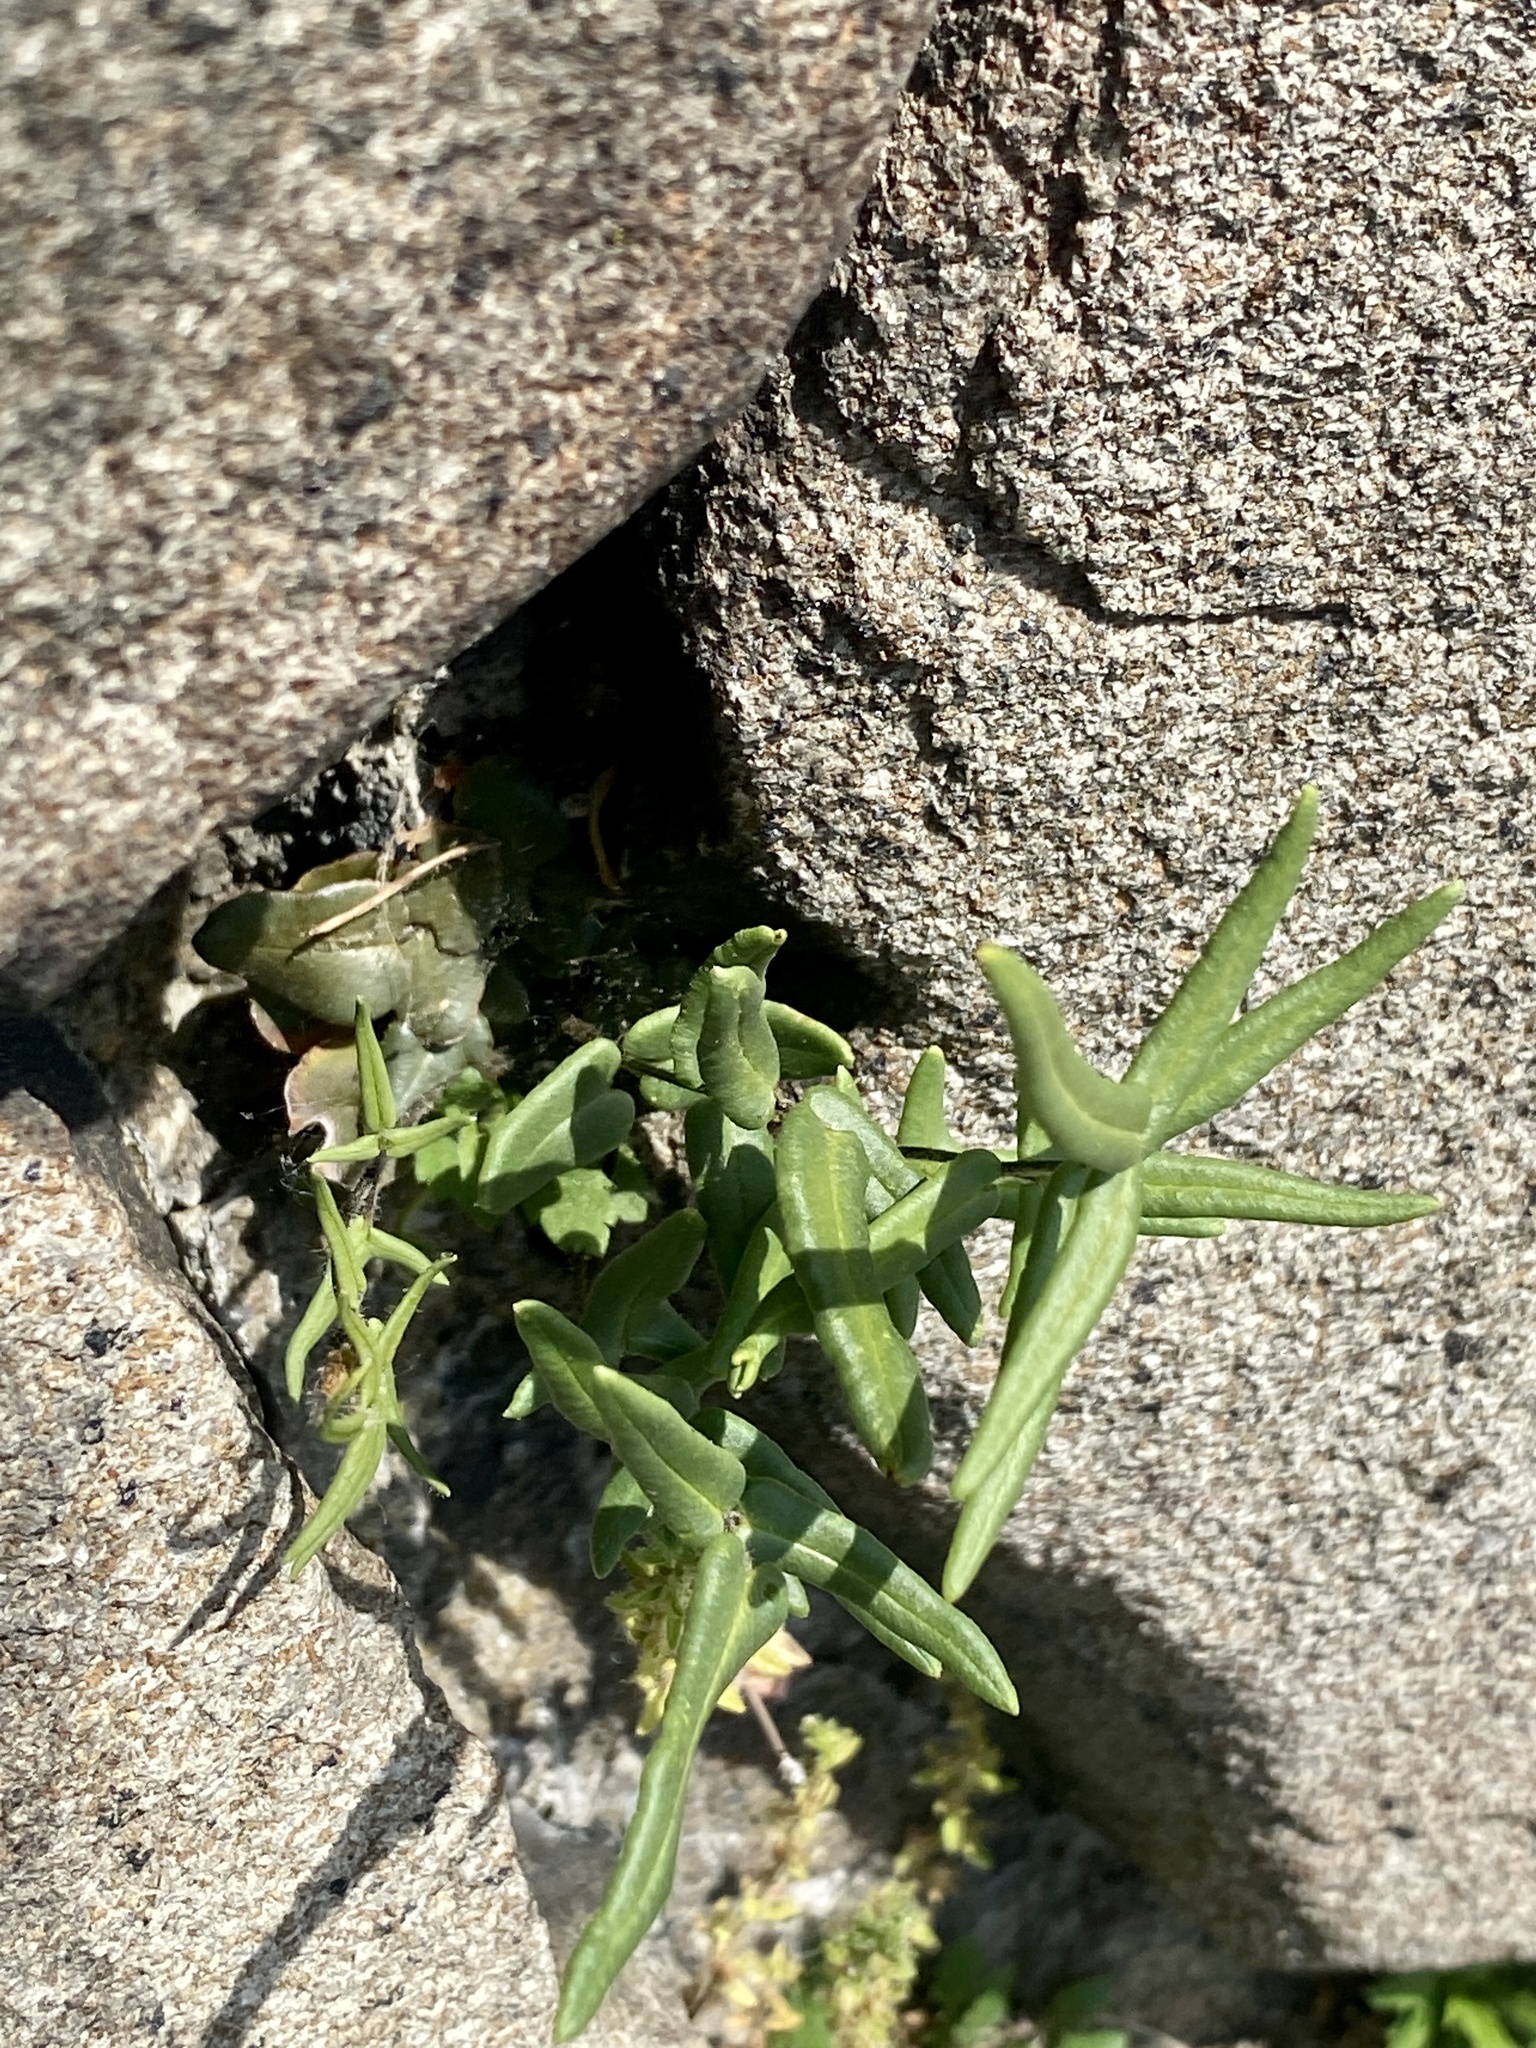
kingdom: Plantae
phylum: Tracheophyta
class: Polypodiopsida
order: Polypodiales
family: Pteridaceae
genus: Pellaea
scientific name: Pellaea atropurpurea
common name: Hairy cliffbrake
